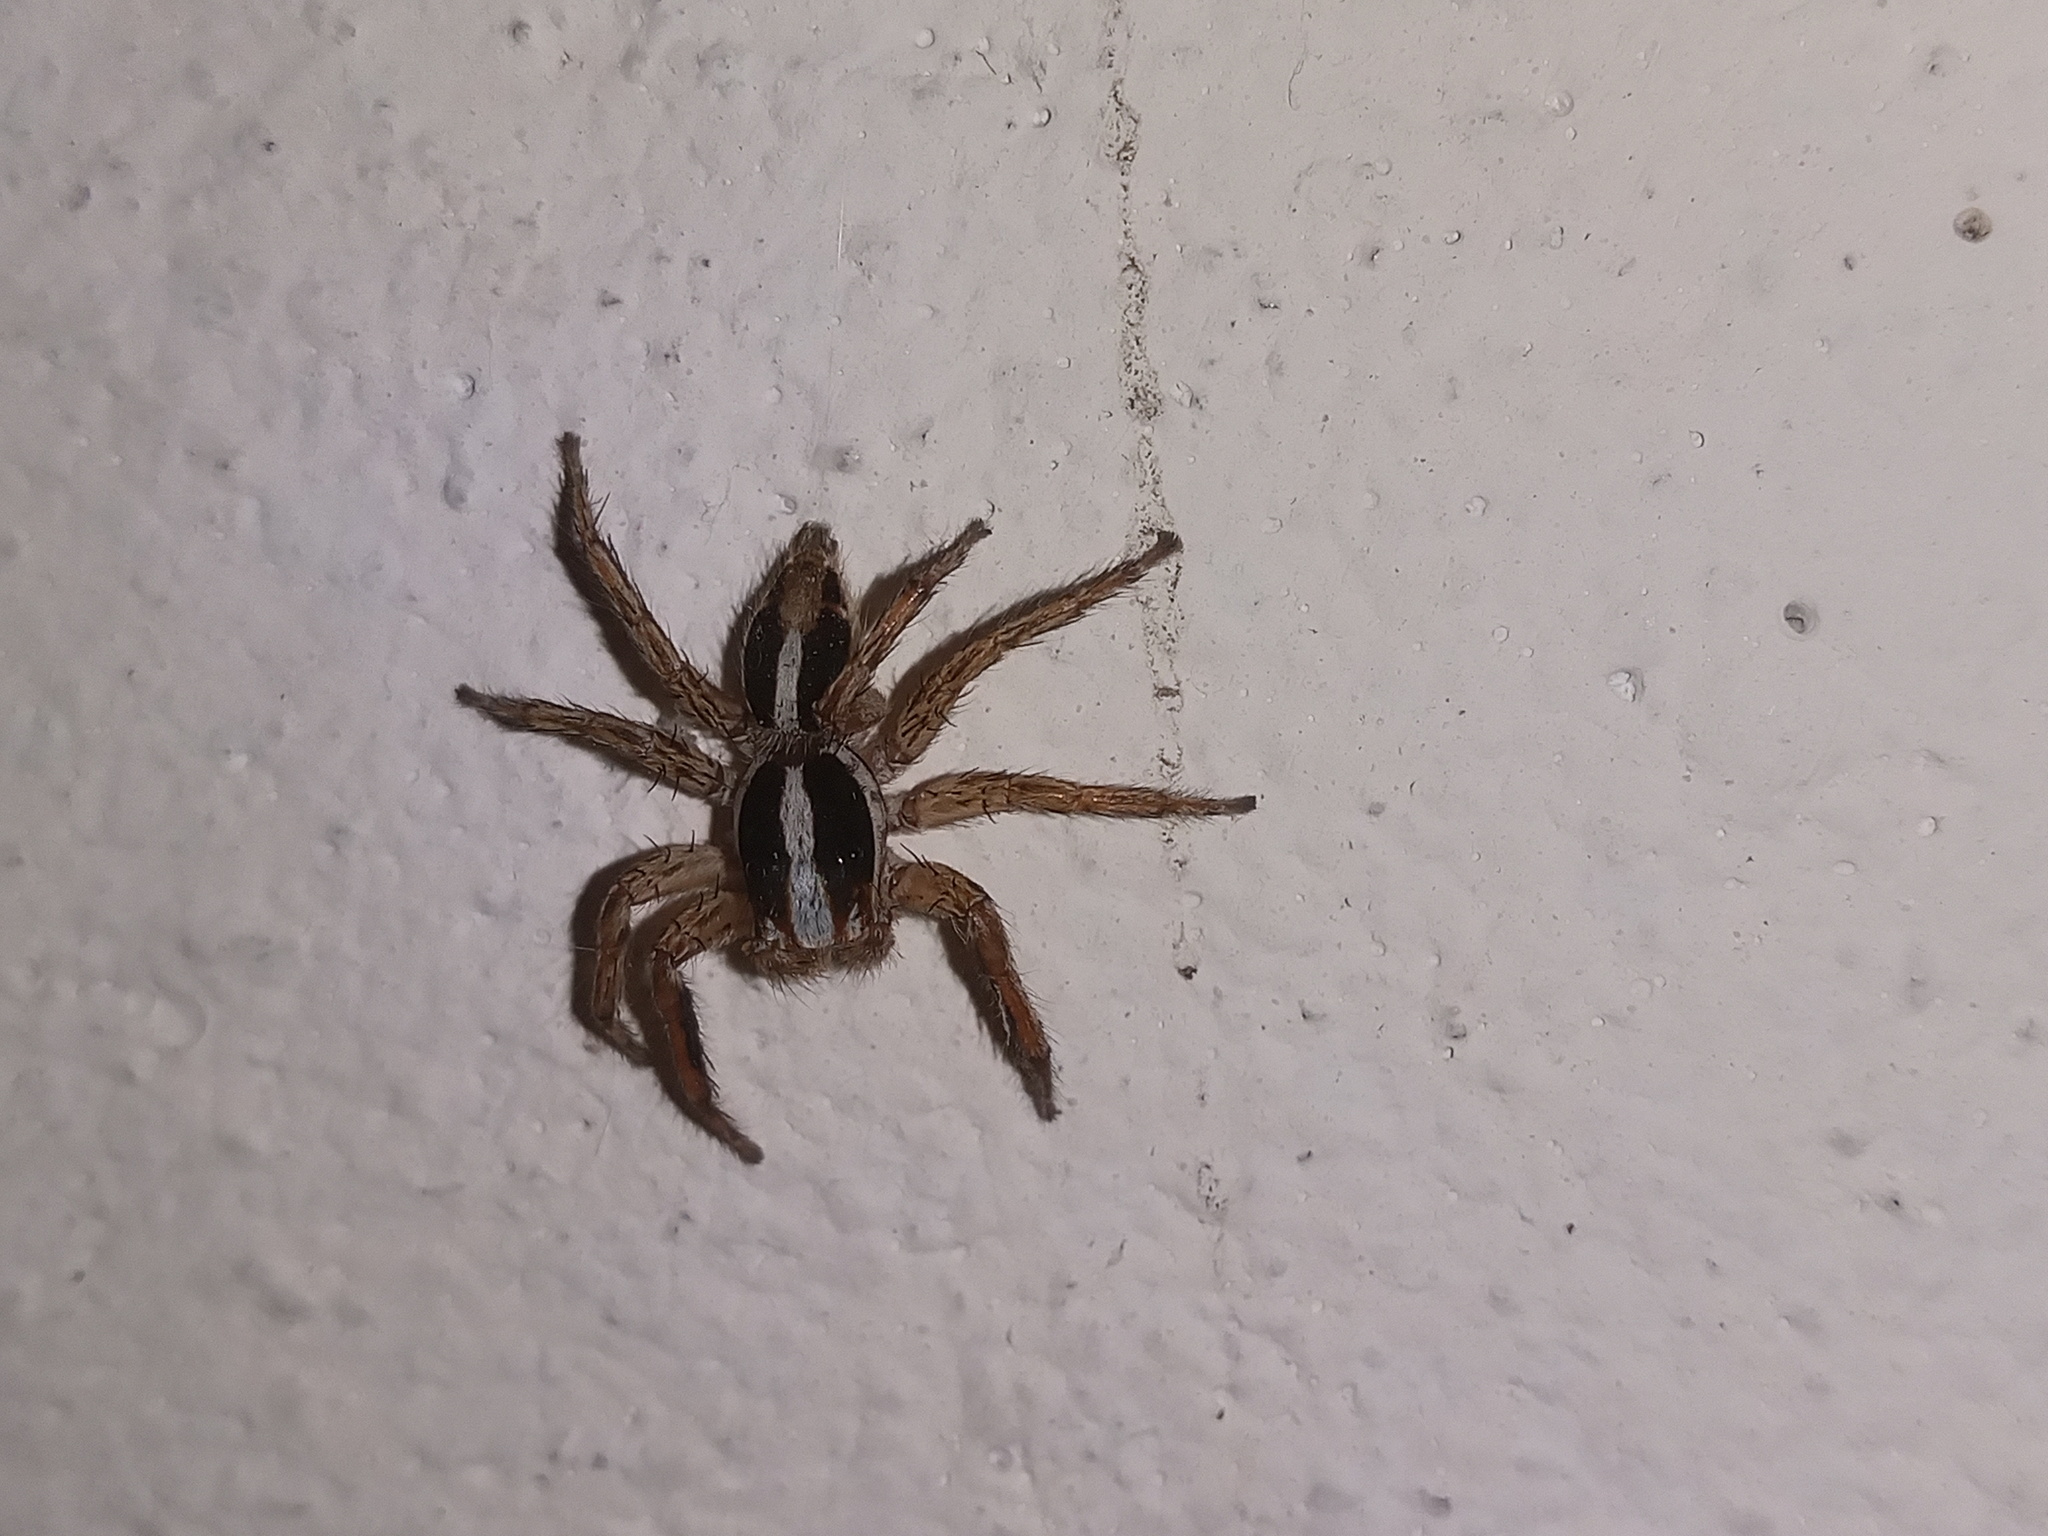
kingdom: Animalia
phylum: Arthropoda
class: Arachnida
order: Araneae
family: Salticidae
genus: Plexippus
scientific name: Plexippus paykulli
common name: Pantropical jumper
